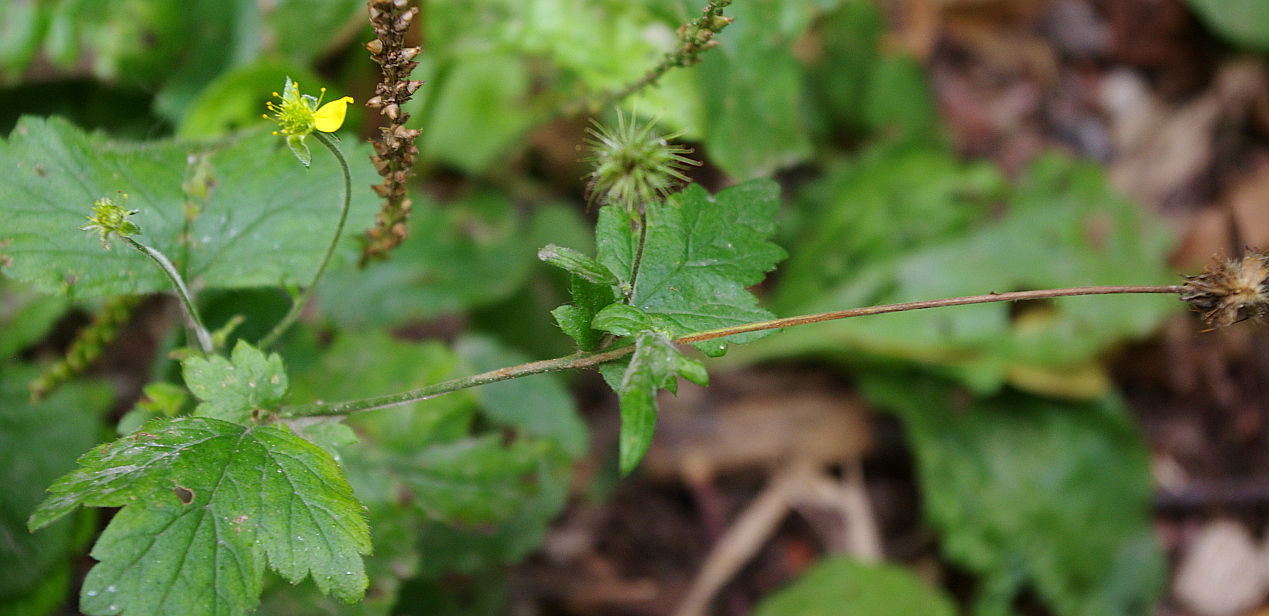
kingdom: Plantae
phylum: Tracheophyta
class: Magnoliopsida
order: Rosales
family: Rosaceae
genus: Geum
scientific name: Geum urbanum
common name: Wood avens
